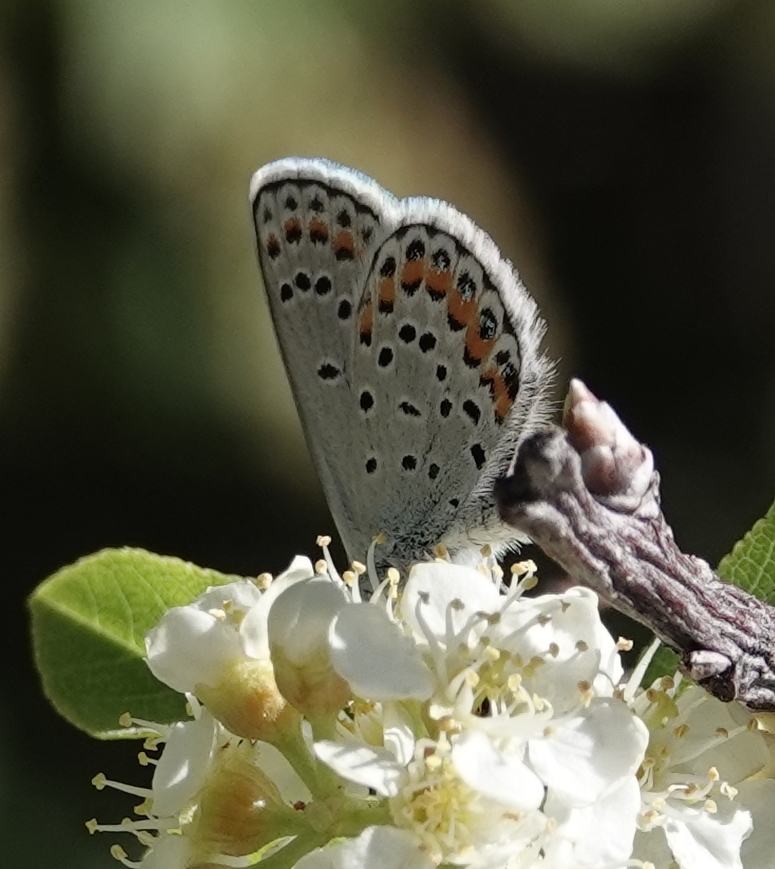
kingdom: Animalia
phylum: Arthropoda
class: Insecta
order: Lepidoptera
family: Lycaenidae
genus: Lycaeides
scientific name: Lycaeides melissa
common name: Melissa blue
